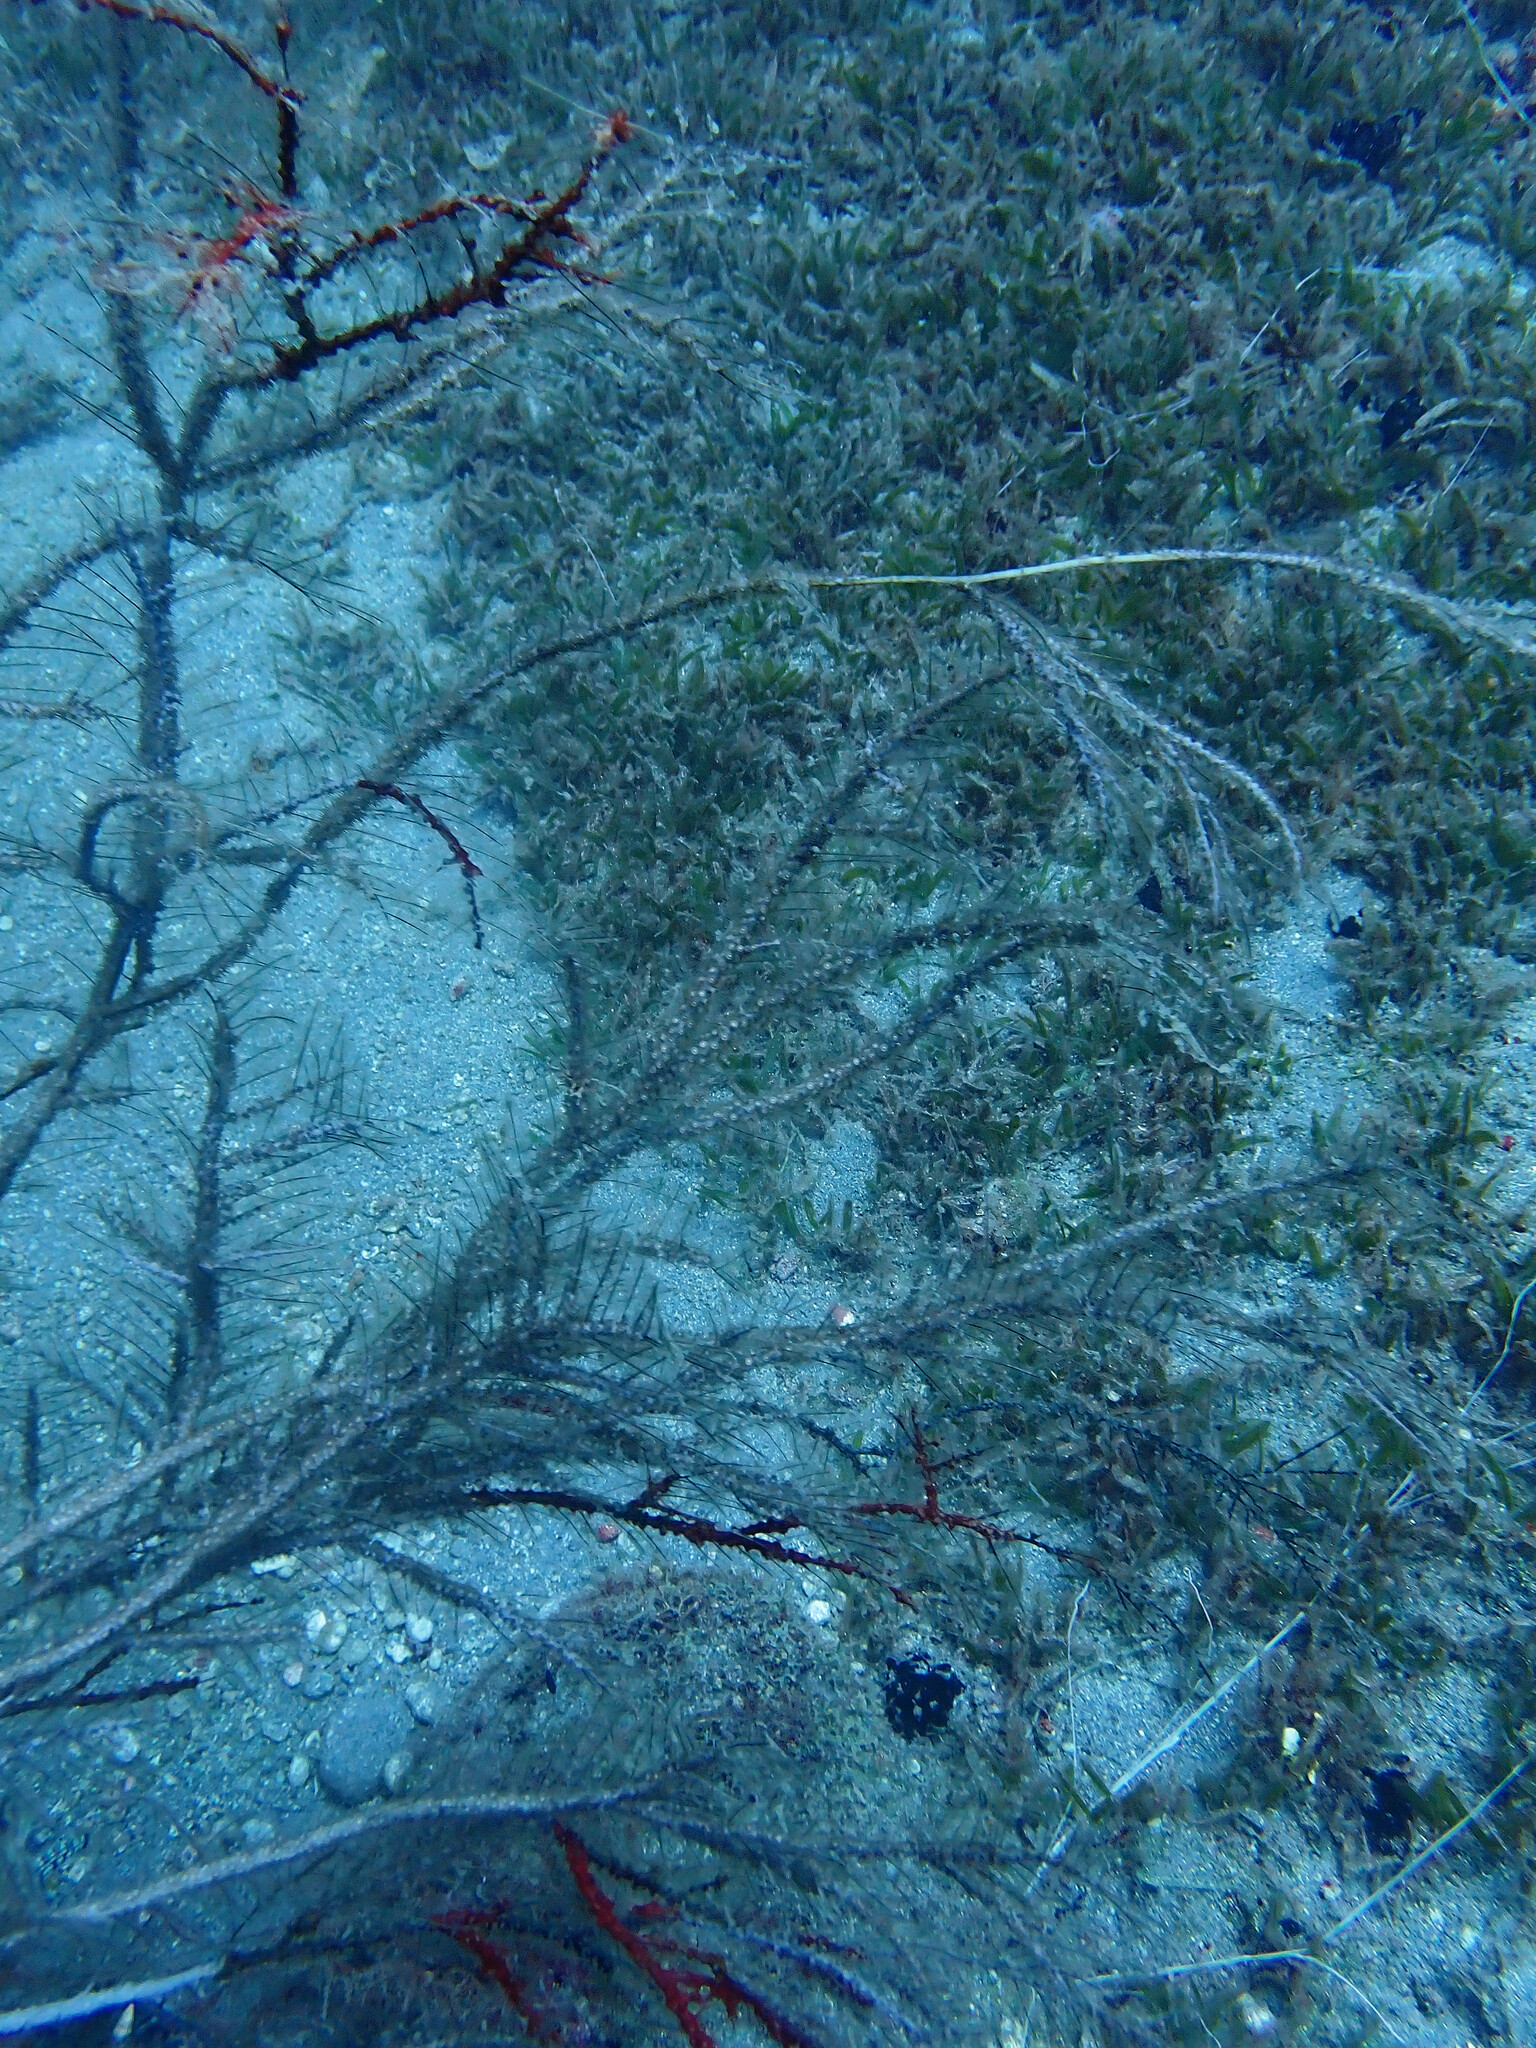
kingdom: Animalia
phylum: Cnidaria
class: Hydrozoa
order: Leptothecata
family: Plumulariidae
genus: Dentitheca
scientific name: Dentitheca dendritica
